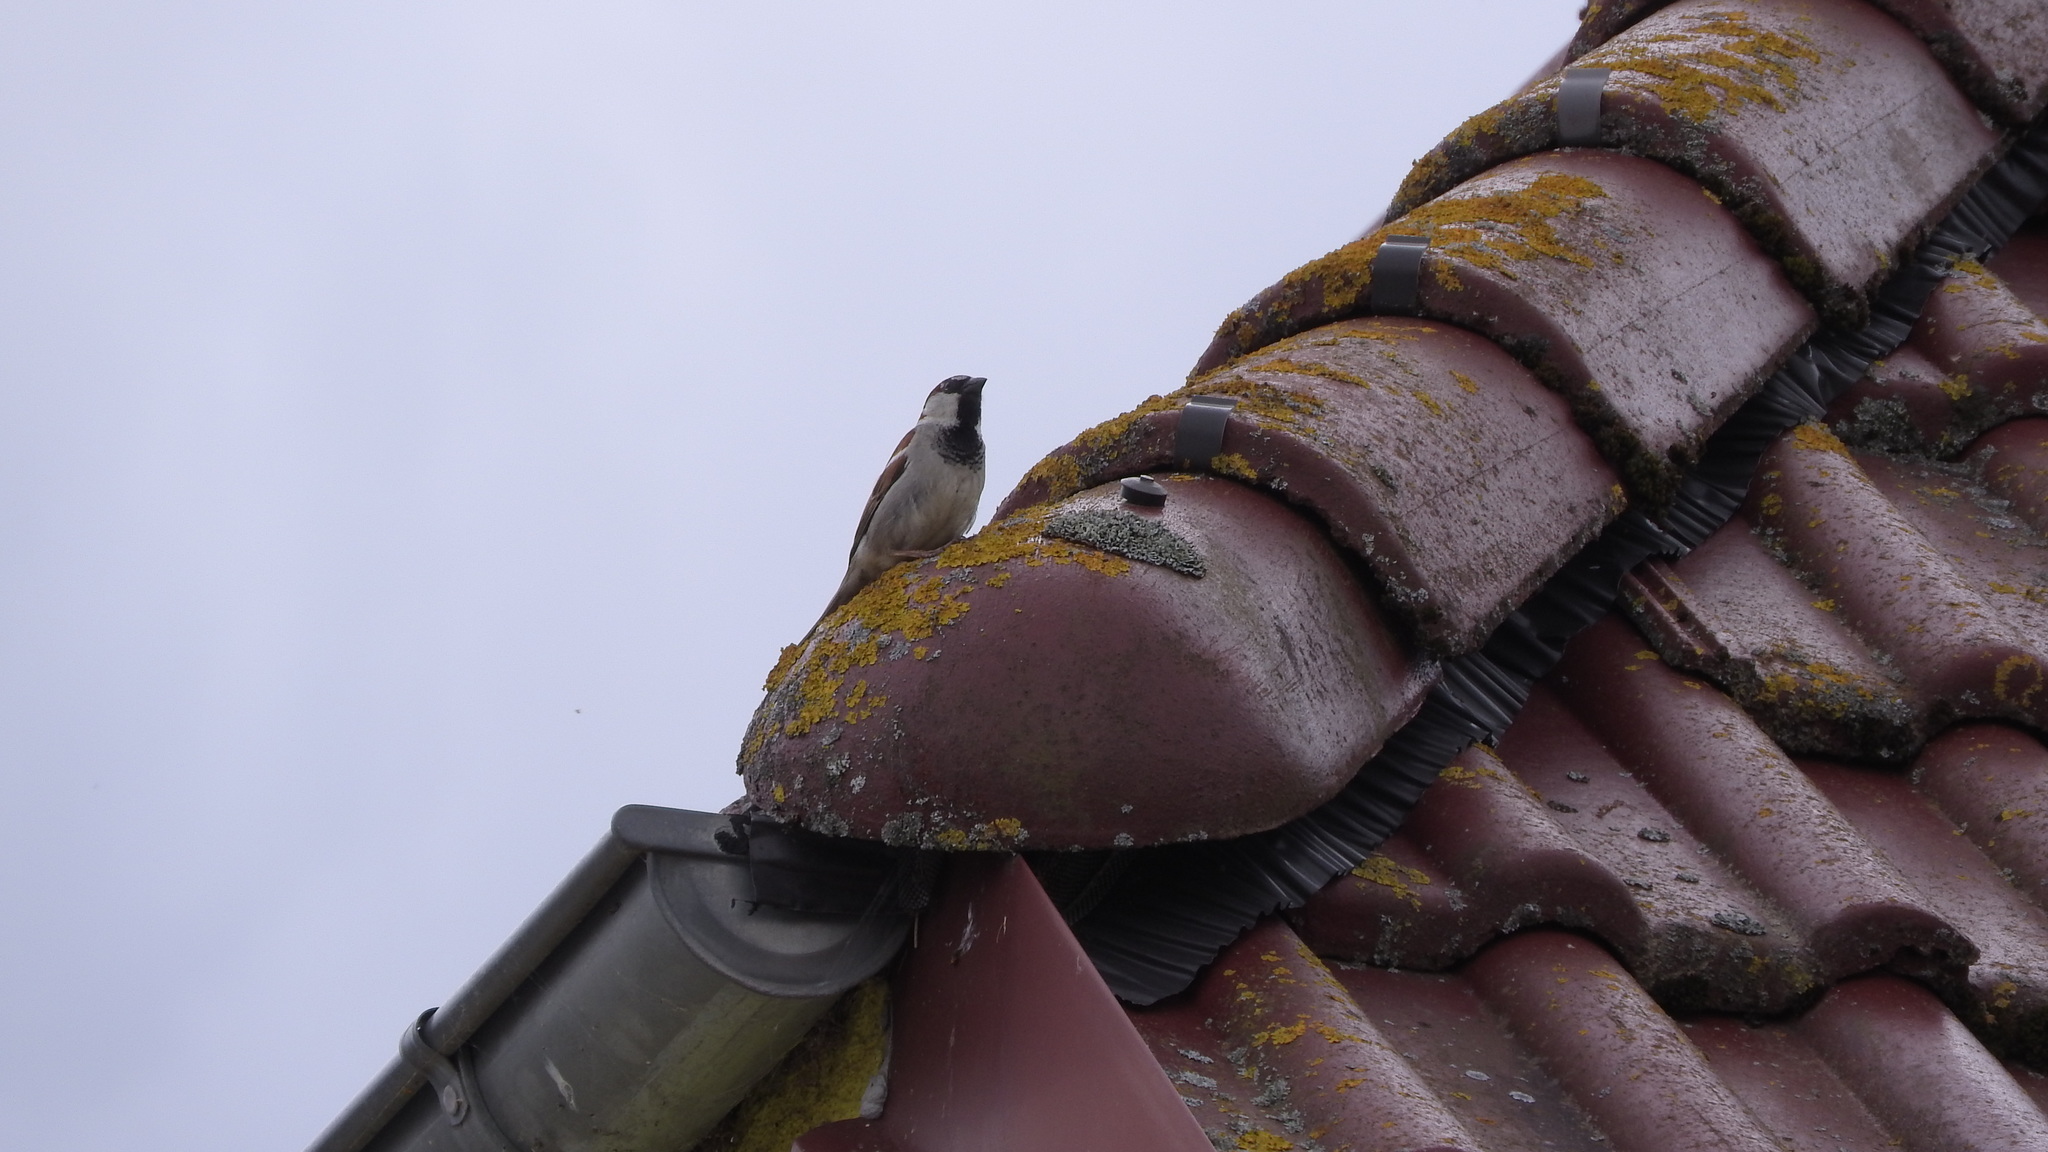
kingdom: Animalia
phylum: Chordata
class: Aves
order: Passeriformes
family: Passeridae
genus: Passer
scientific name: Passer domesticus
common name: House sparrow
